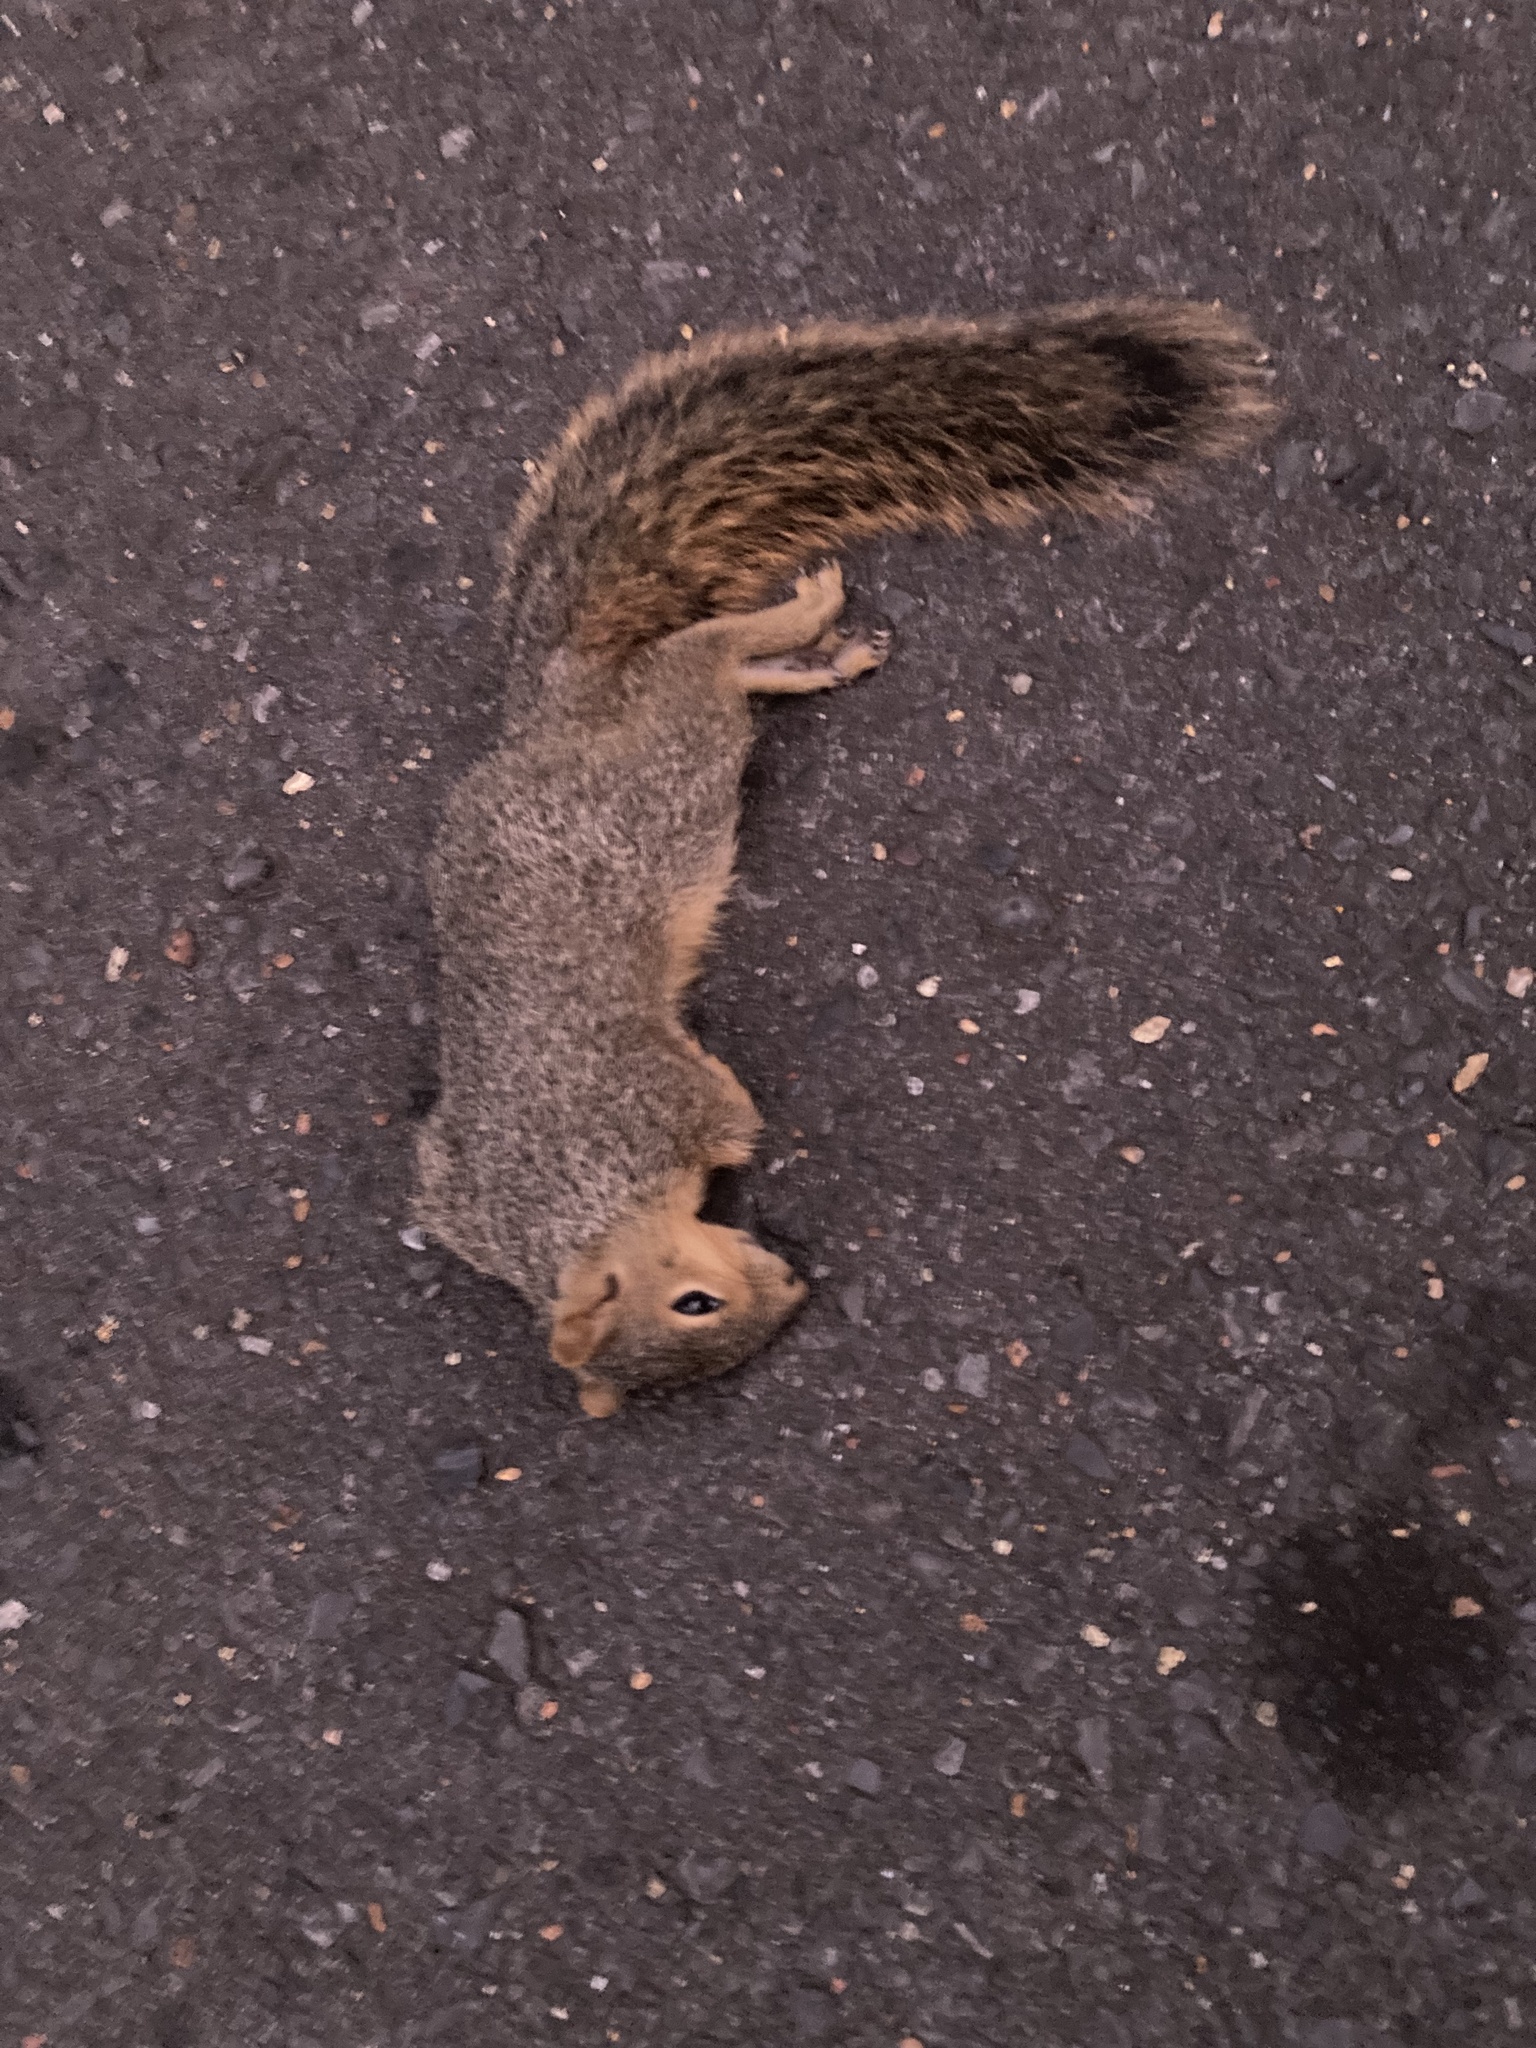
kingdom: Animalia
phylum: Chordata
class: Mammalia
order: Rodentia
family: Sciuridae
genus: Sciurus
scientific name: Sciurus niger
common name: Fox squirrel
